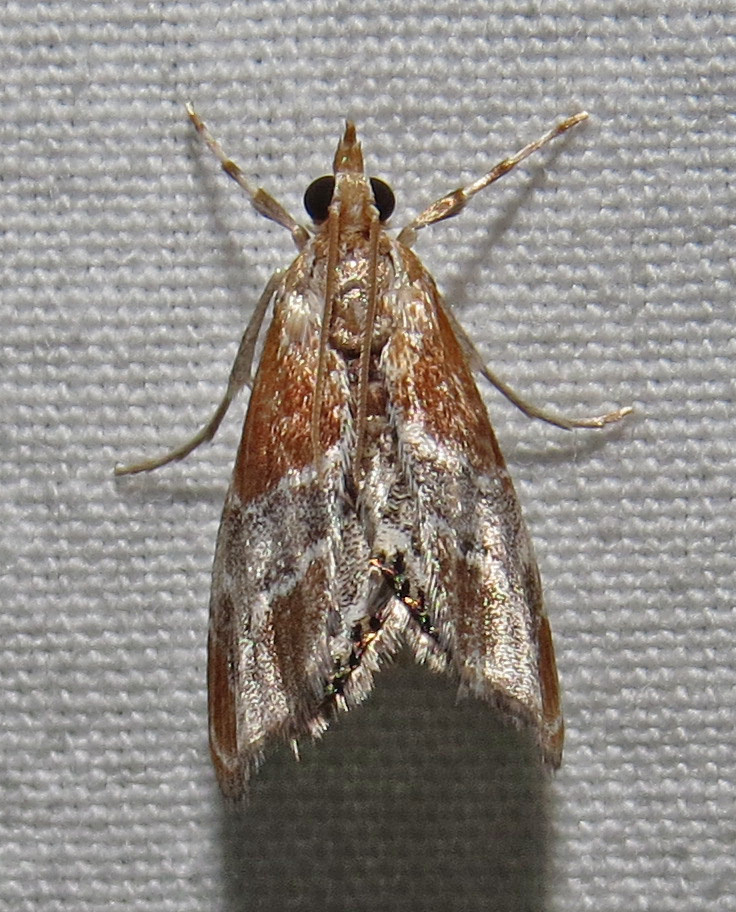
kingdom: Animalia
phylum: Arthropoda
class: Insecta
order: Lepidoptera
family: Crambidae
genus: Chalcoela
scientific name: Chalcoela pegasalis
